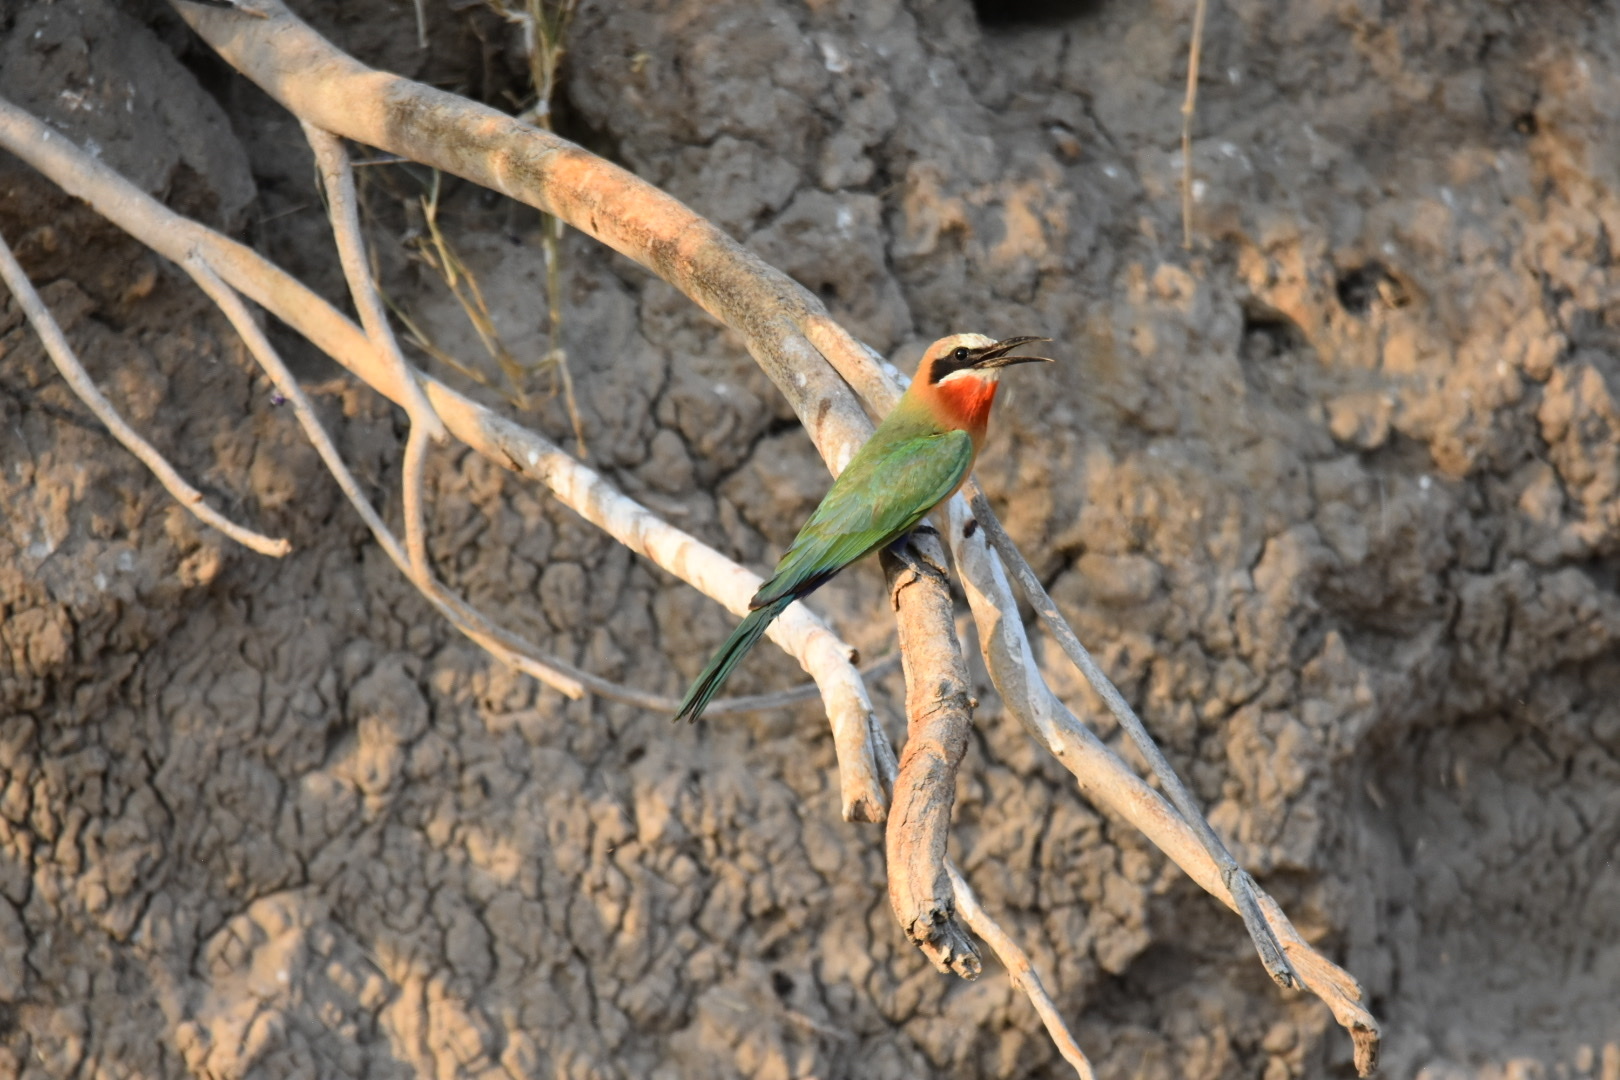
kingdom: Animalia
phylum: Chordata
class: Aves
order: Coraciiformes
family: Meropidae
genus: Merops
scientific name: Merops bullockoides
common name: White-fronted bee-eater
